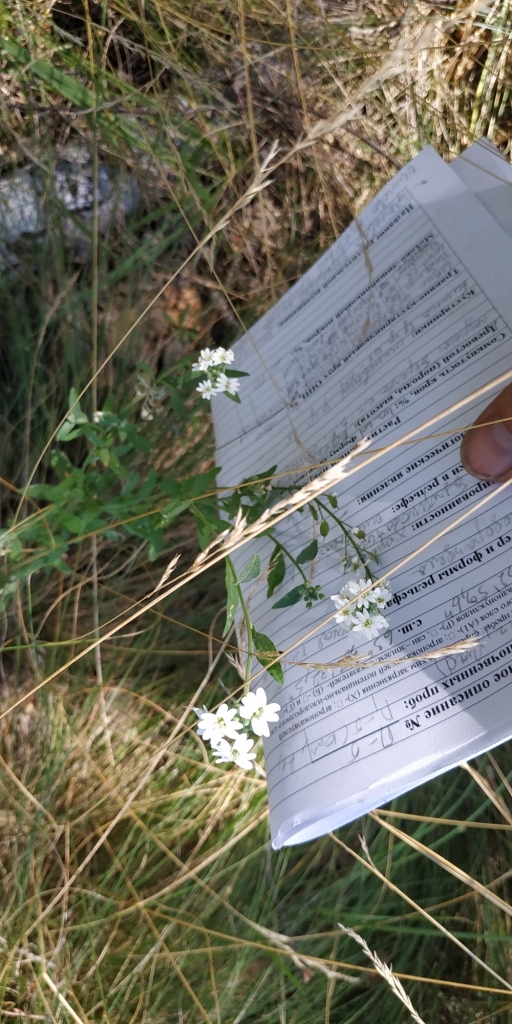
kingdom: Plantae
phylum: Tracheophyta
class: Magnoliopsida
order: Brassicales
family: Brassicaceae
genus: Berteroa
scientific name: Berteroa incana
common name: Hoary alison
